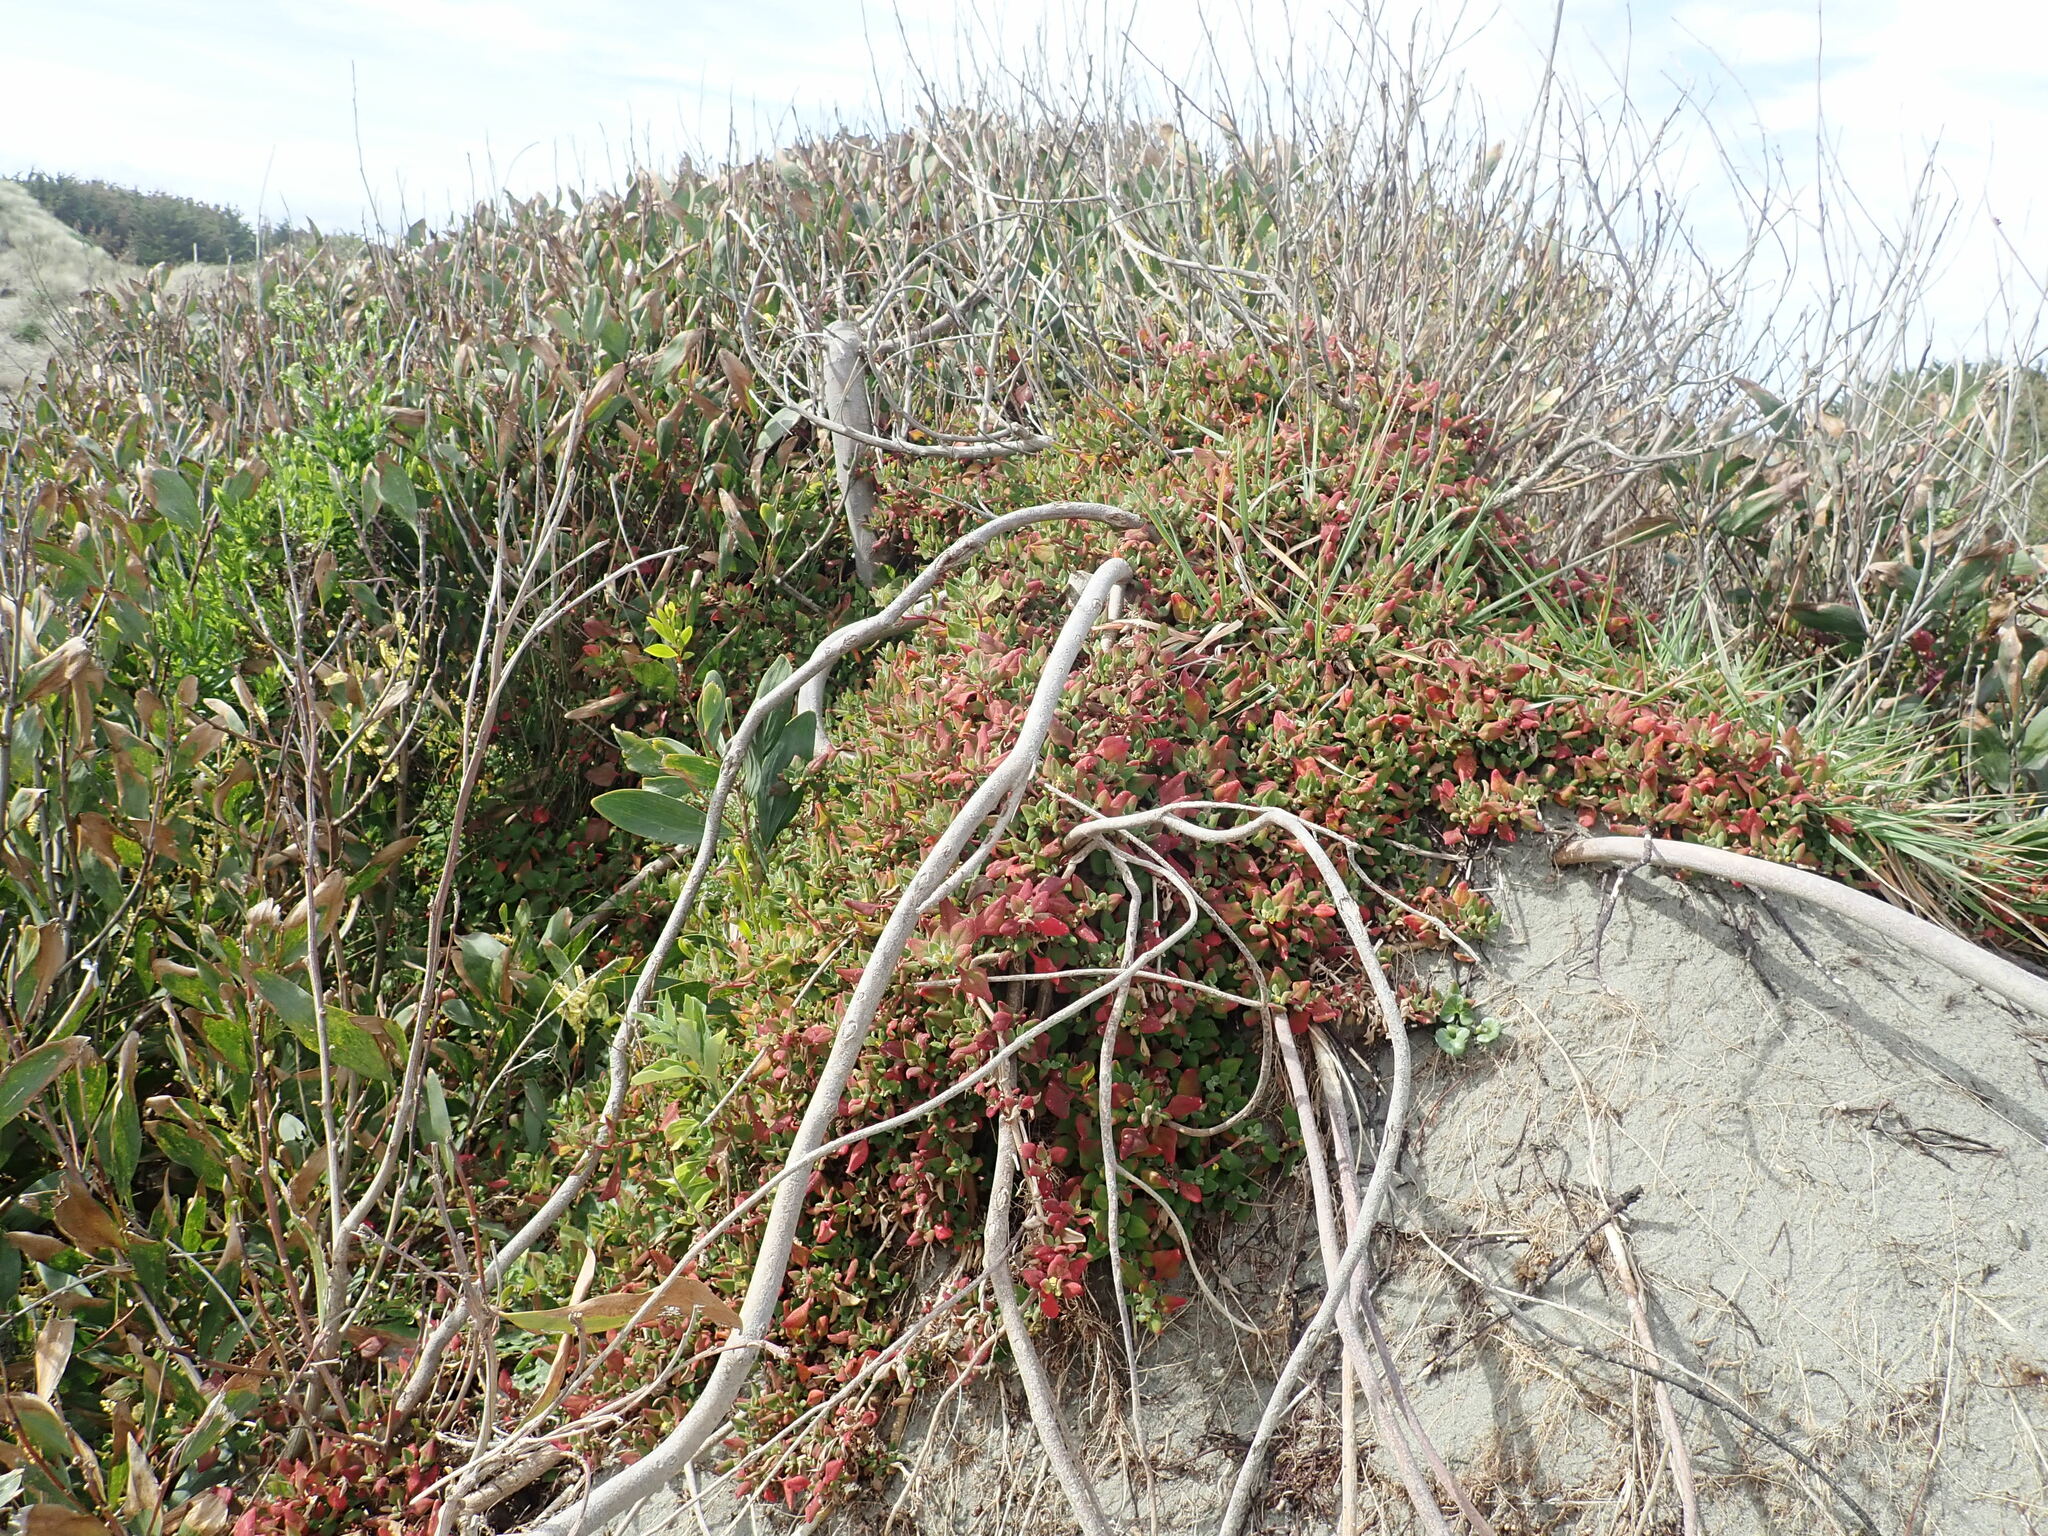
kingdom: Plantae
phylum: Tracheophyta
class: Magnoliopsida
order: Caryophyllales
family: Aizoaceae
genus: Tetragonia
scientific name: Tetragonia implexicoma
